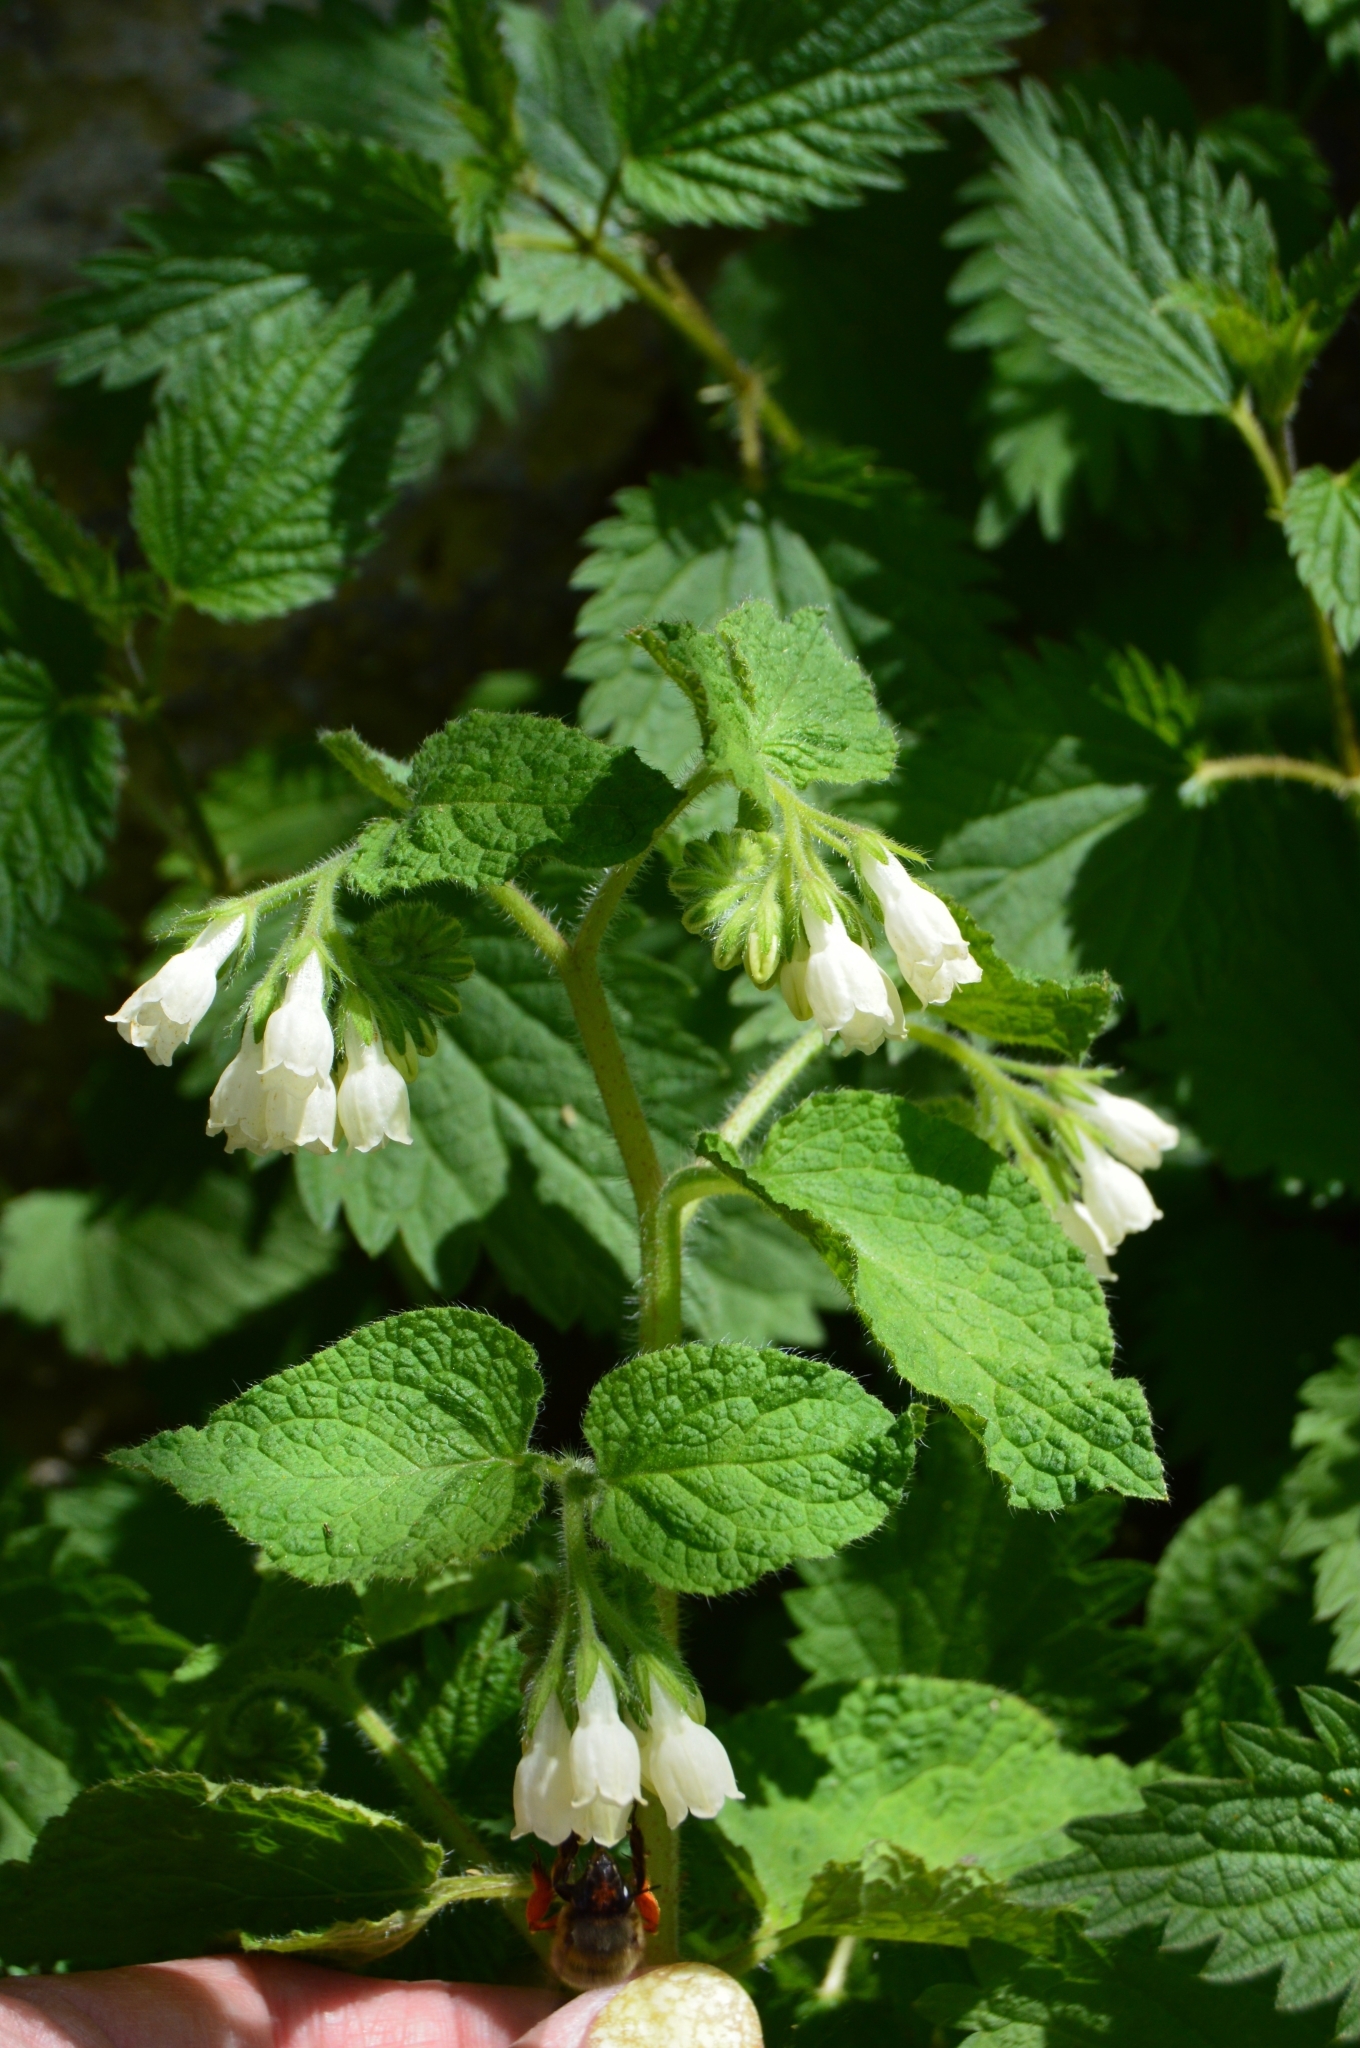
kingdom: Plantae
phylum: Tracheophyta
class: Magnoliopsida
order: Boraginales
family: Boraginaceae
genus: Symphytum
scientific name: Symphytum tauricum
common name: Crimean comfrey
